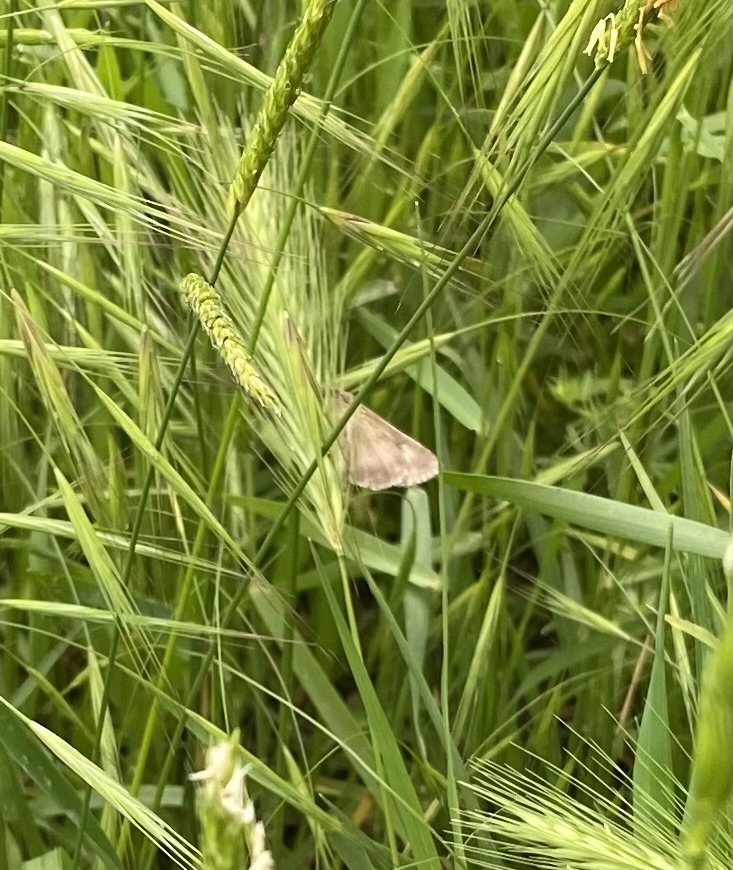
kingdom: Animalia
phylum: Arthropoda
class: Insecta
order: Lepidoptera
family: Noctuidae
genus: Autographa
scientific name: Autographa gamma
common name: Silver y
